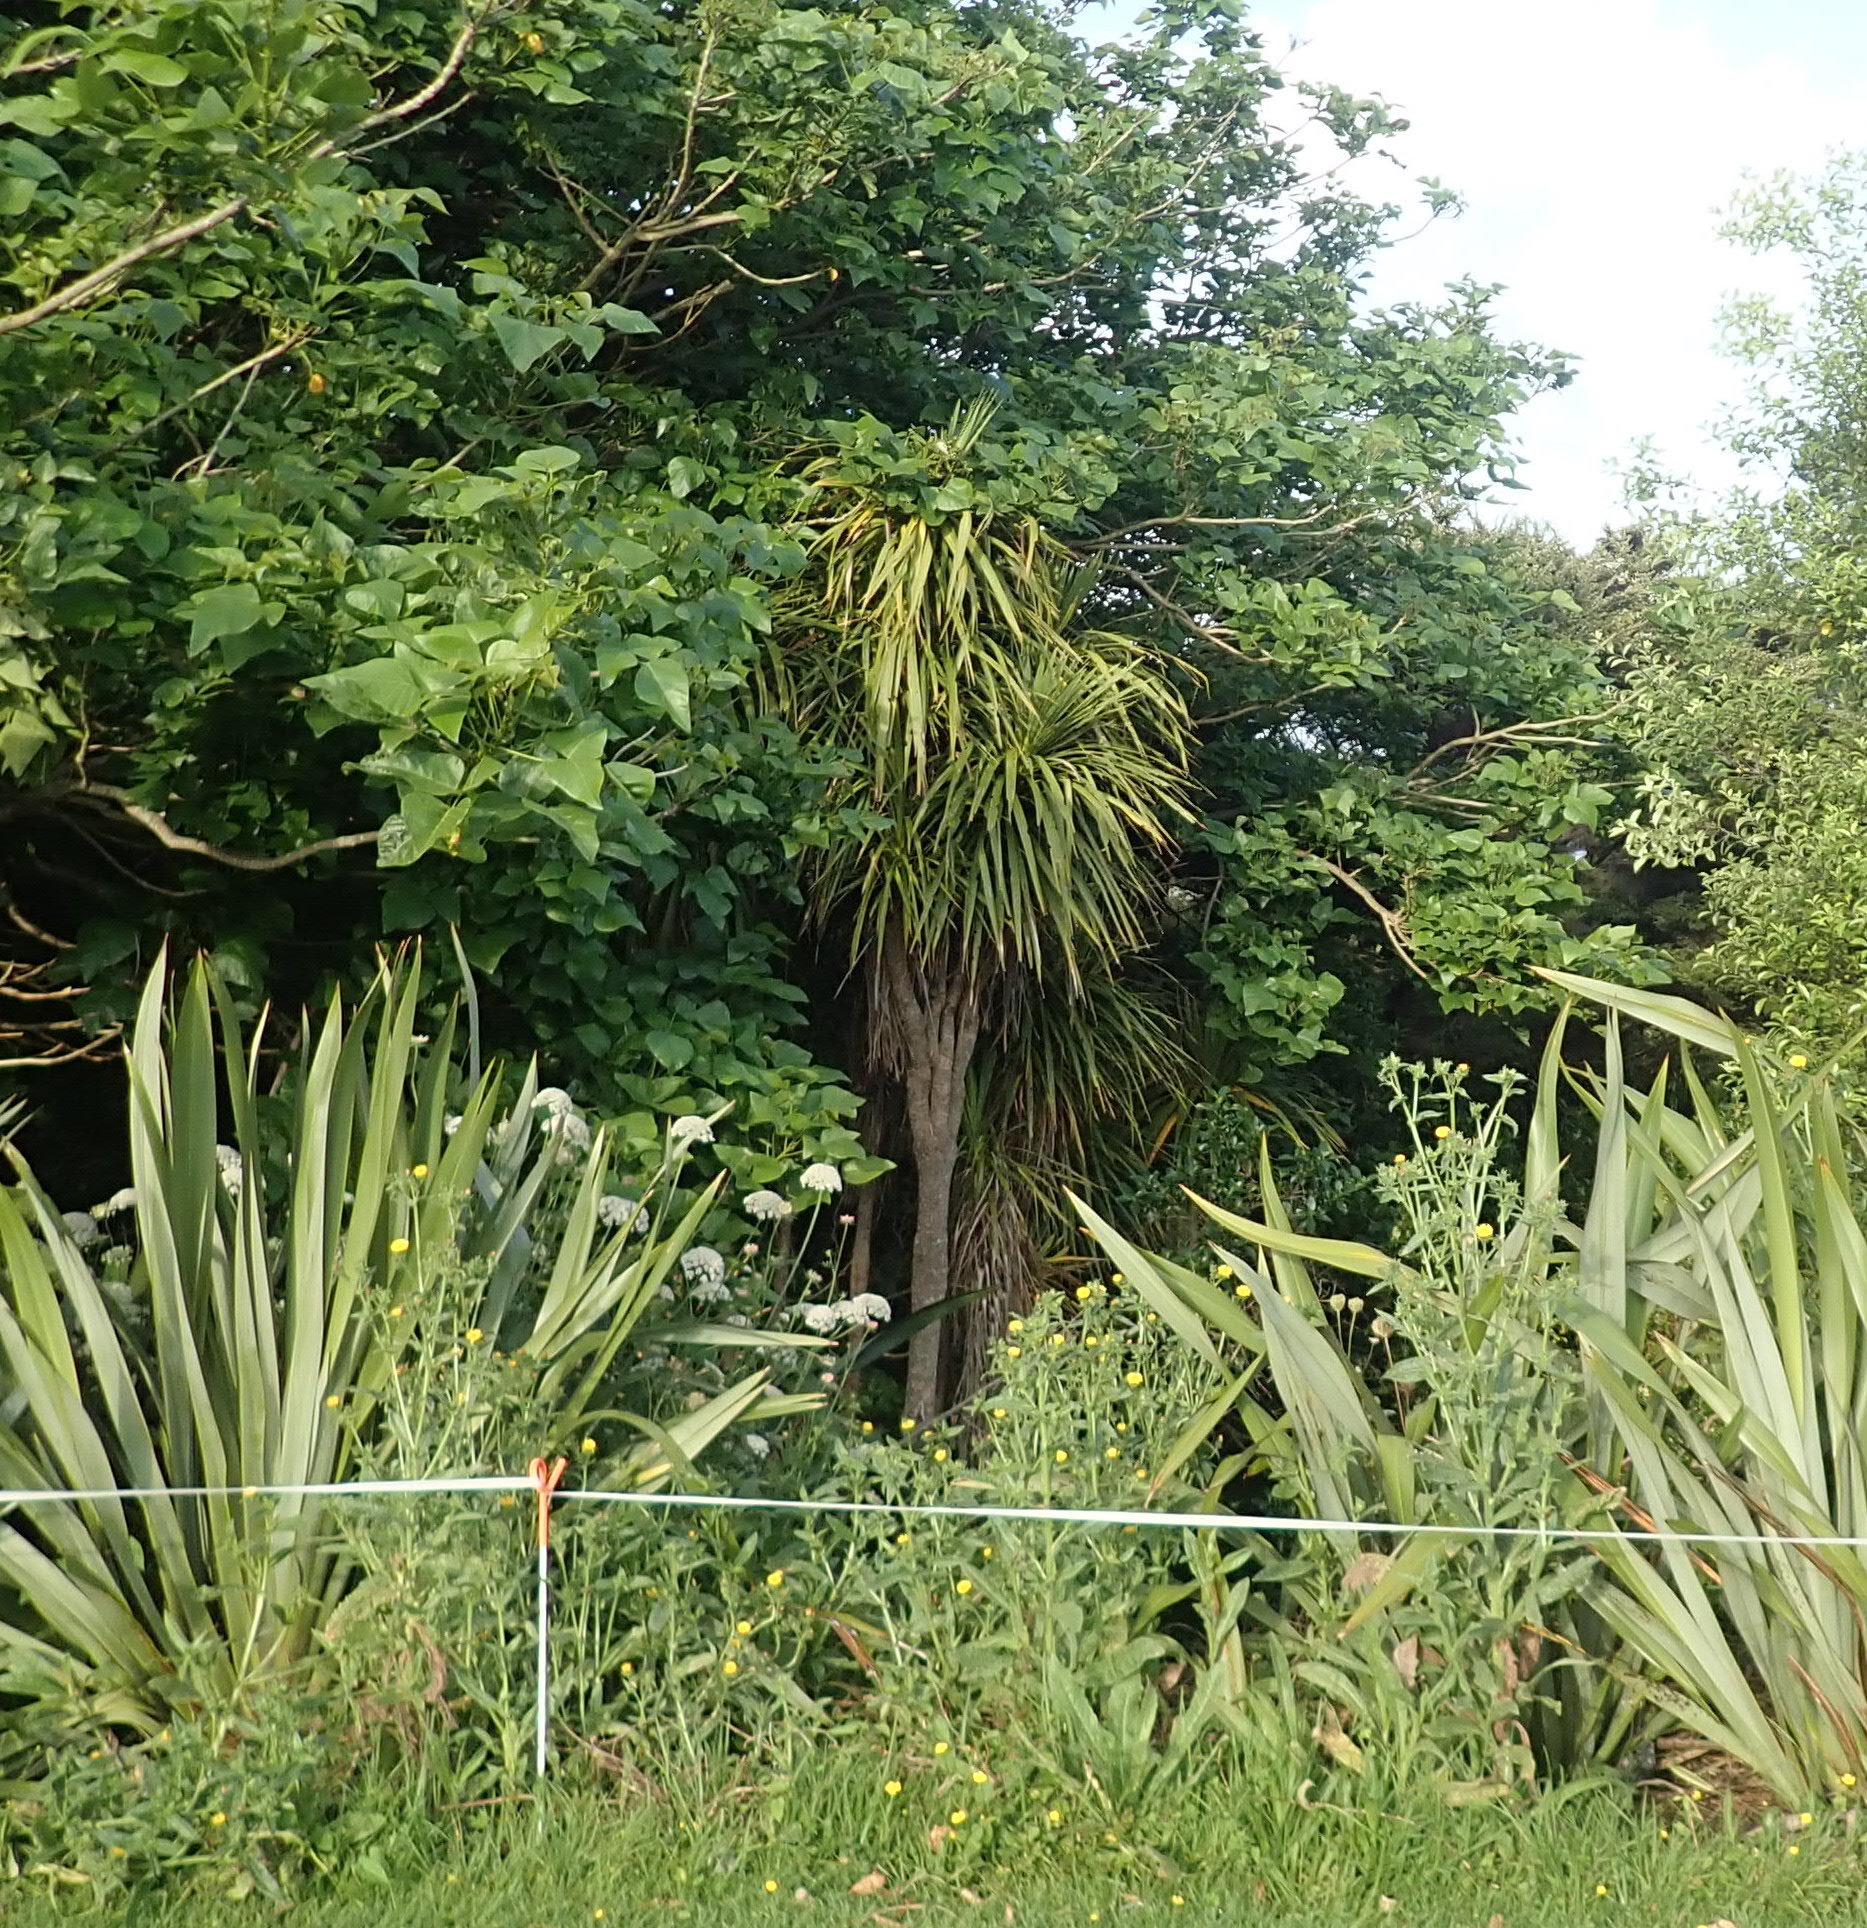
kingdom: Plantae
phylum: Tracheophyta
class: Liliopsida
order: Asparagales
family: Asparagaceae
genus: Cordyline
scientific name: Cordyline australis
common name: Cabbage-palm
